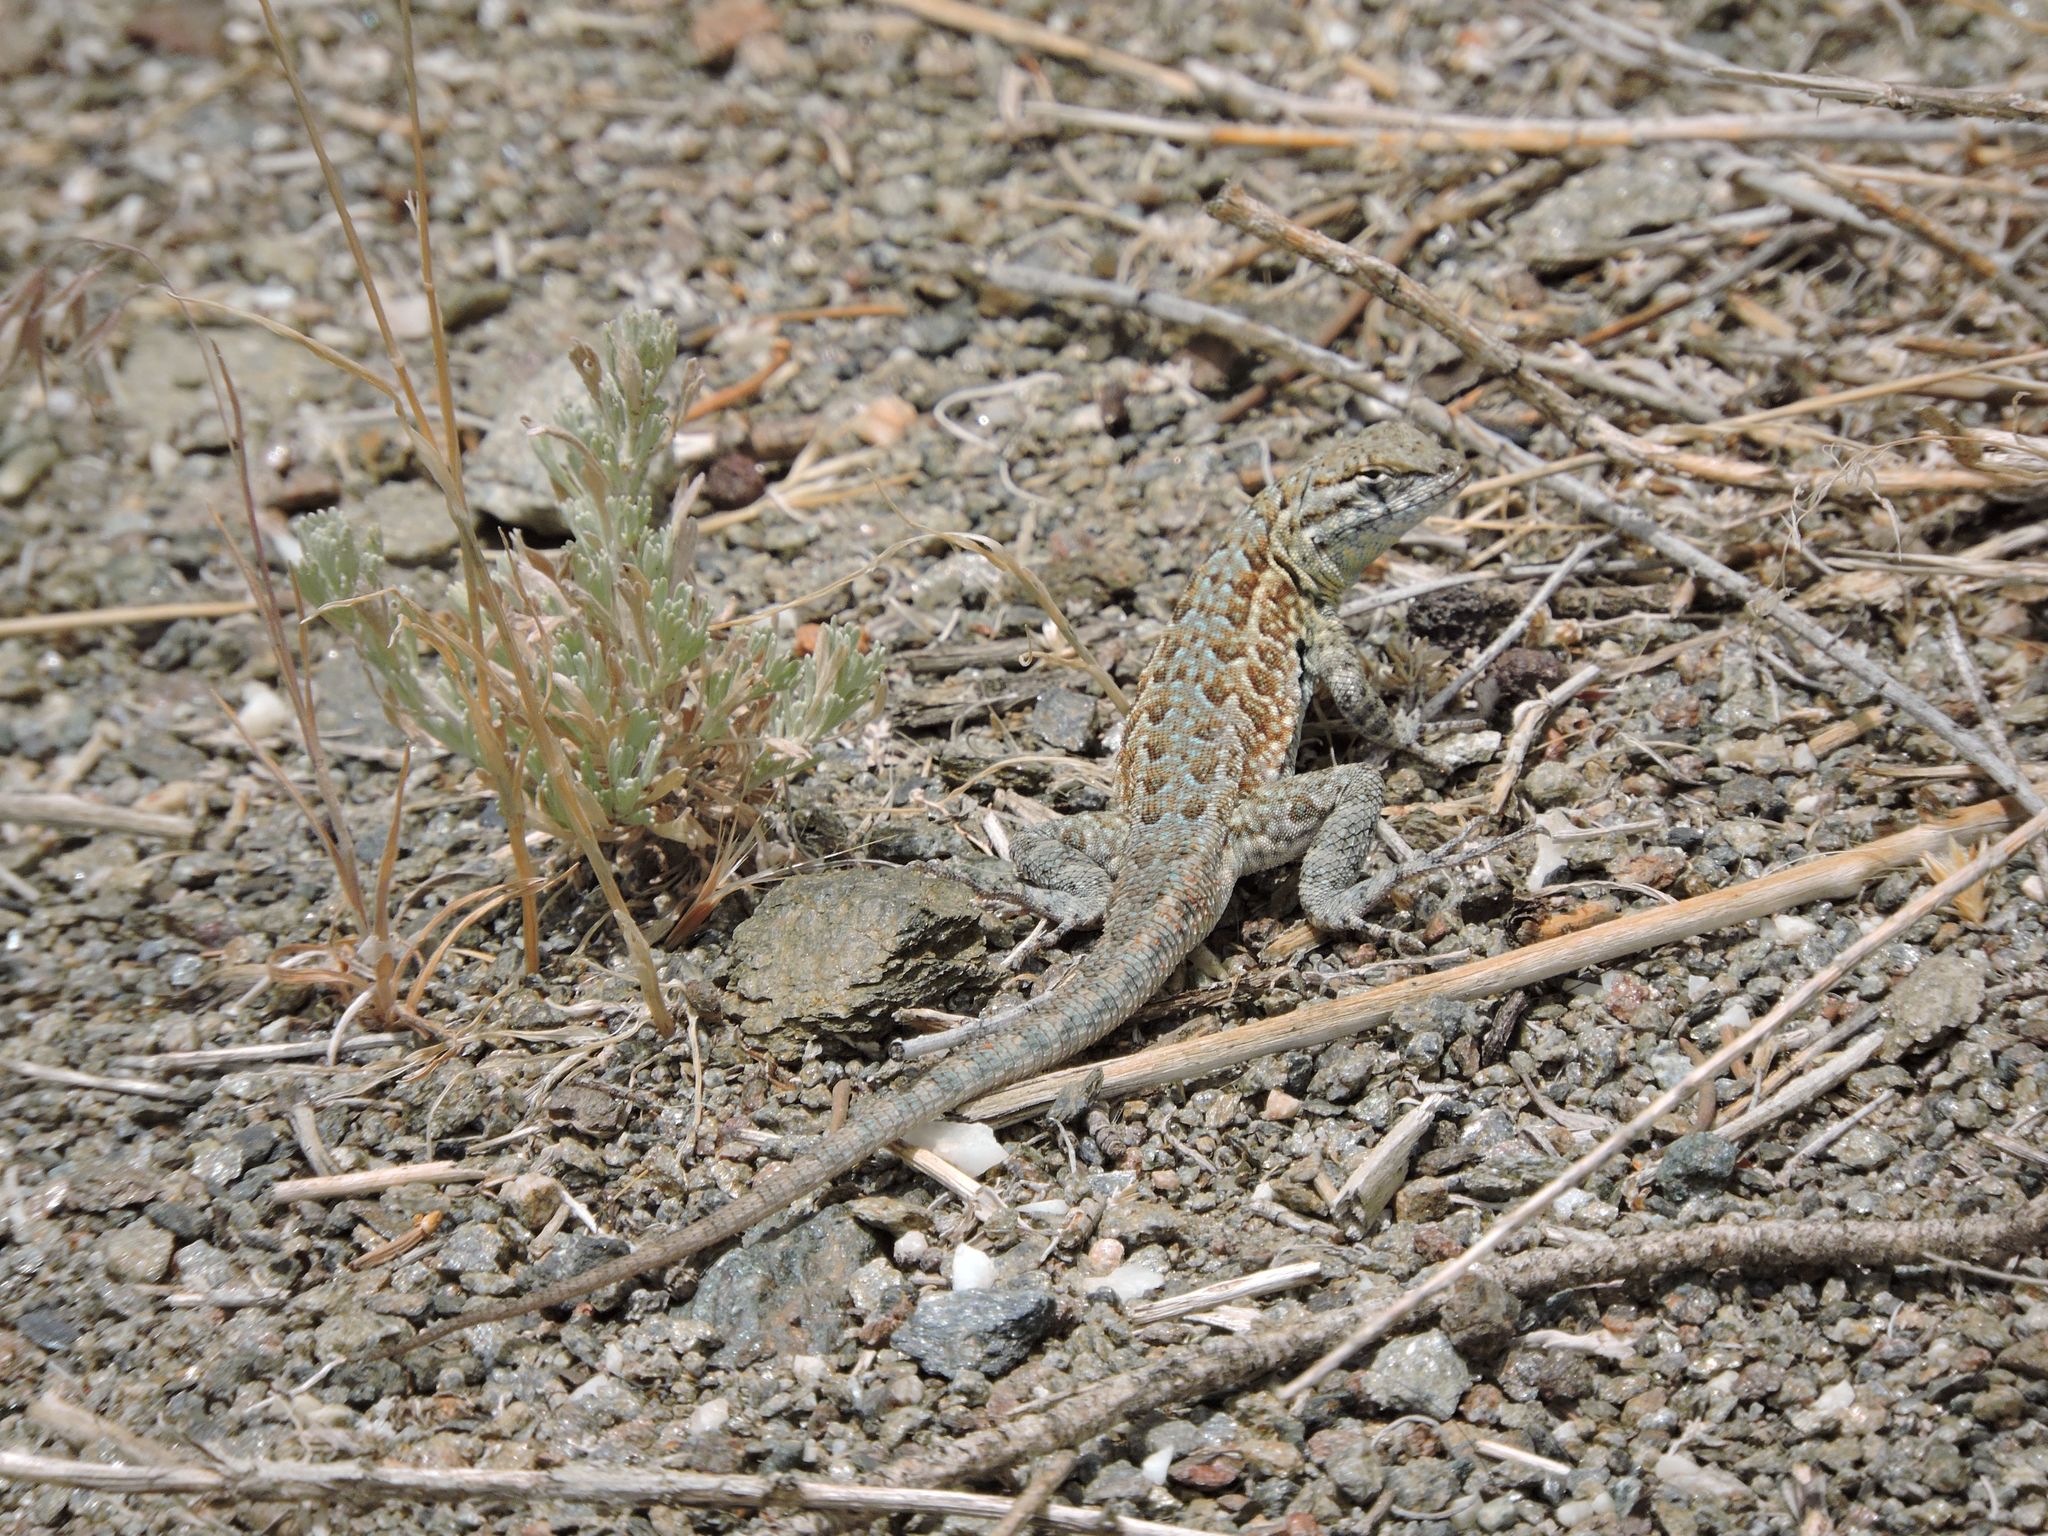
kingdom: Animalia
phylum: Chordata
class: Squamata
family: Phrynosomatidae
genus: Uta
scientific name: Uta stansburiana
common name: Side-blotched lizard
